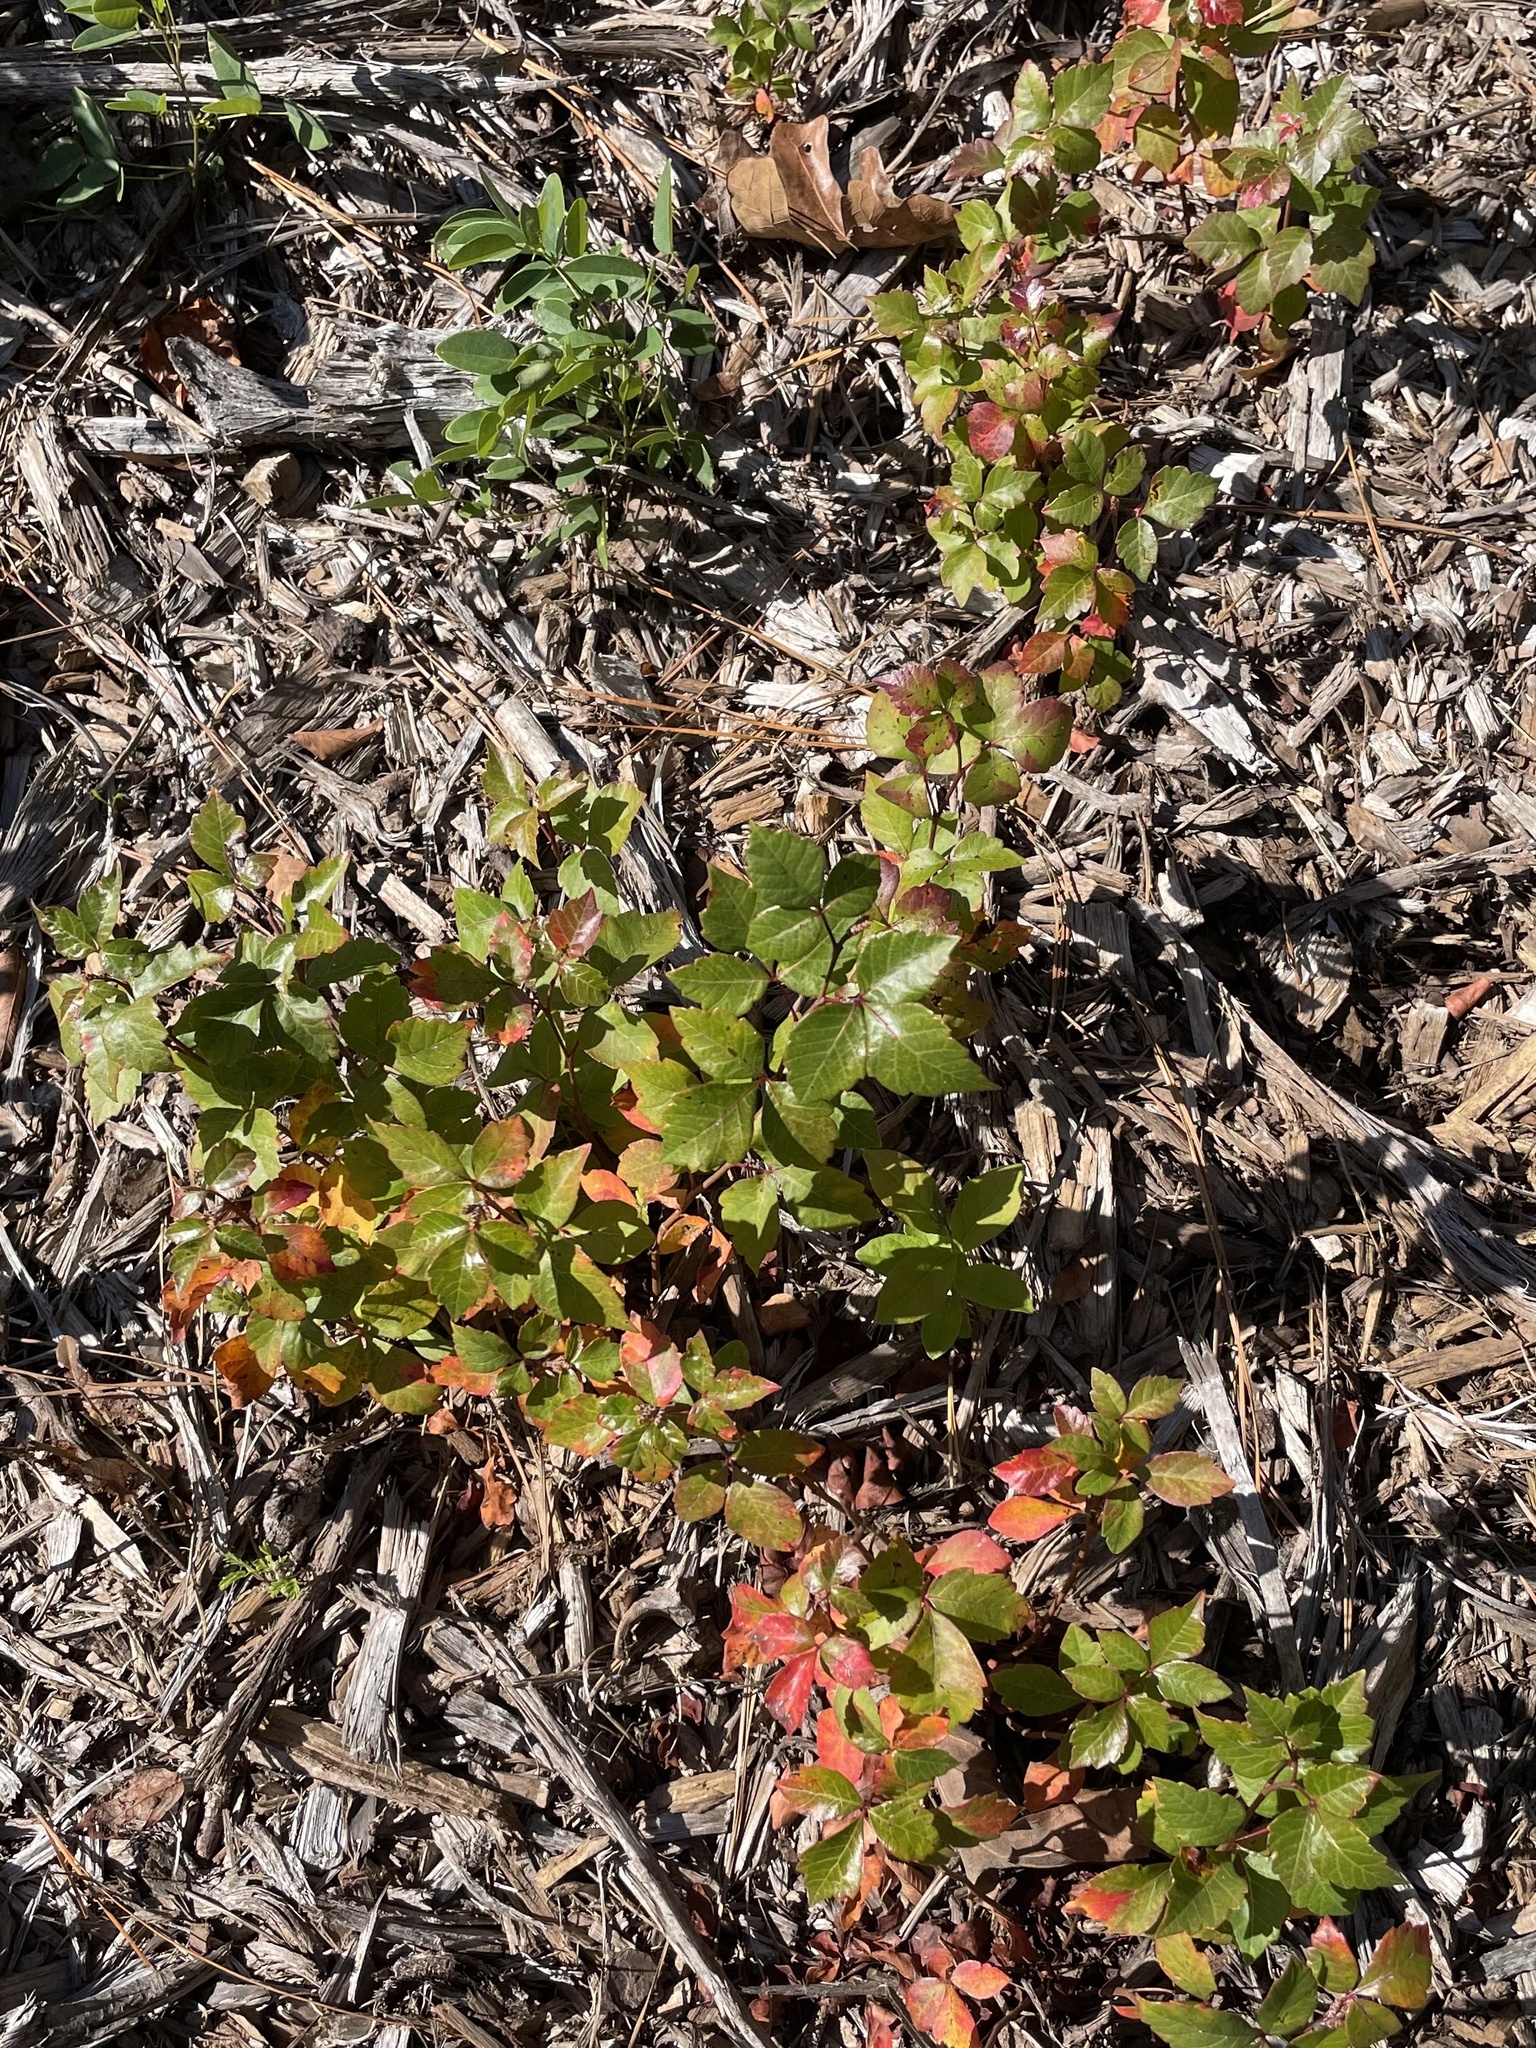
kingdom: Plantae
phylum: Tracheophyta
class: Magnoliopsida
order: Sapindales
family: Anacardiaceae
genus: Rhus
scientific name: Rhus aromatica
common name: Aromatic sumac
